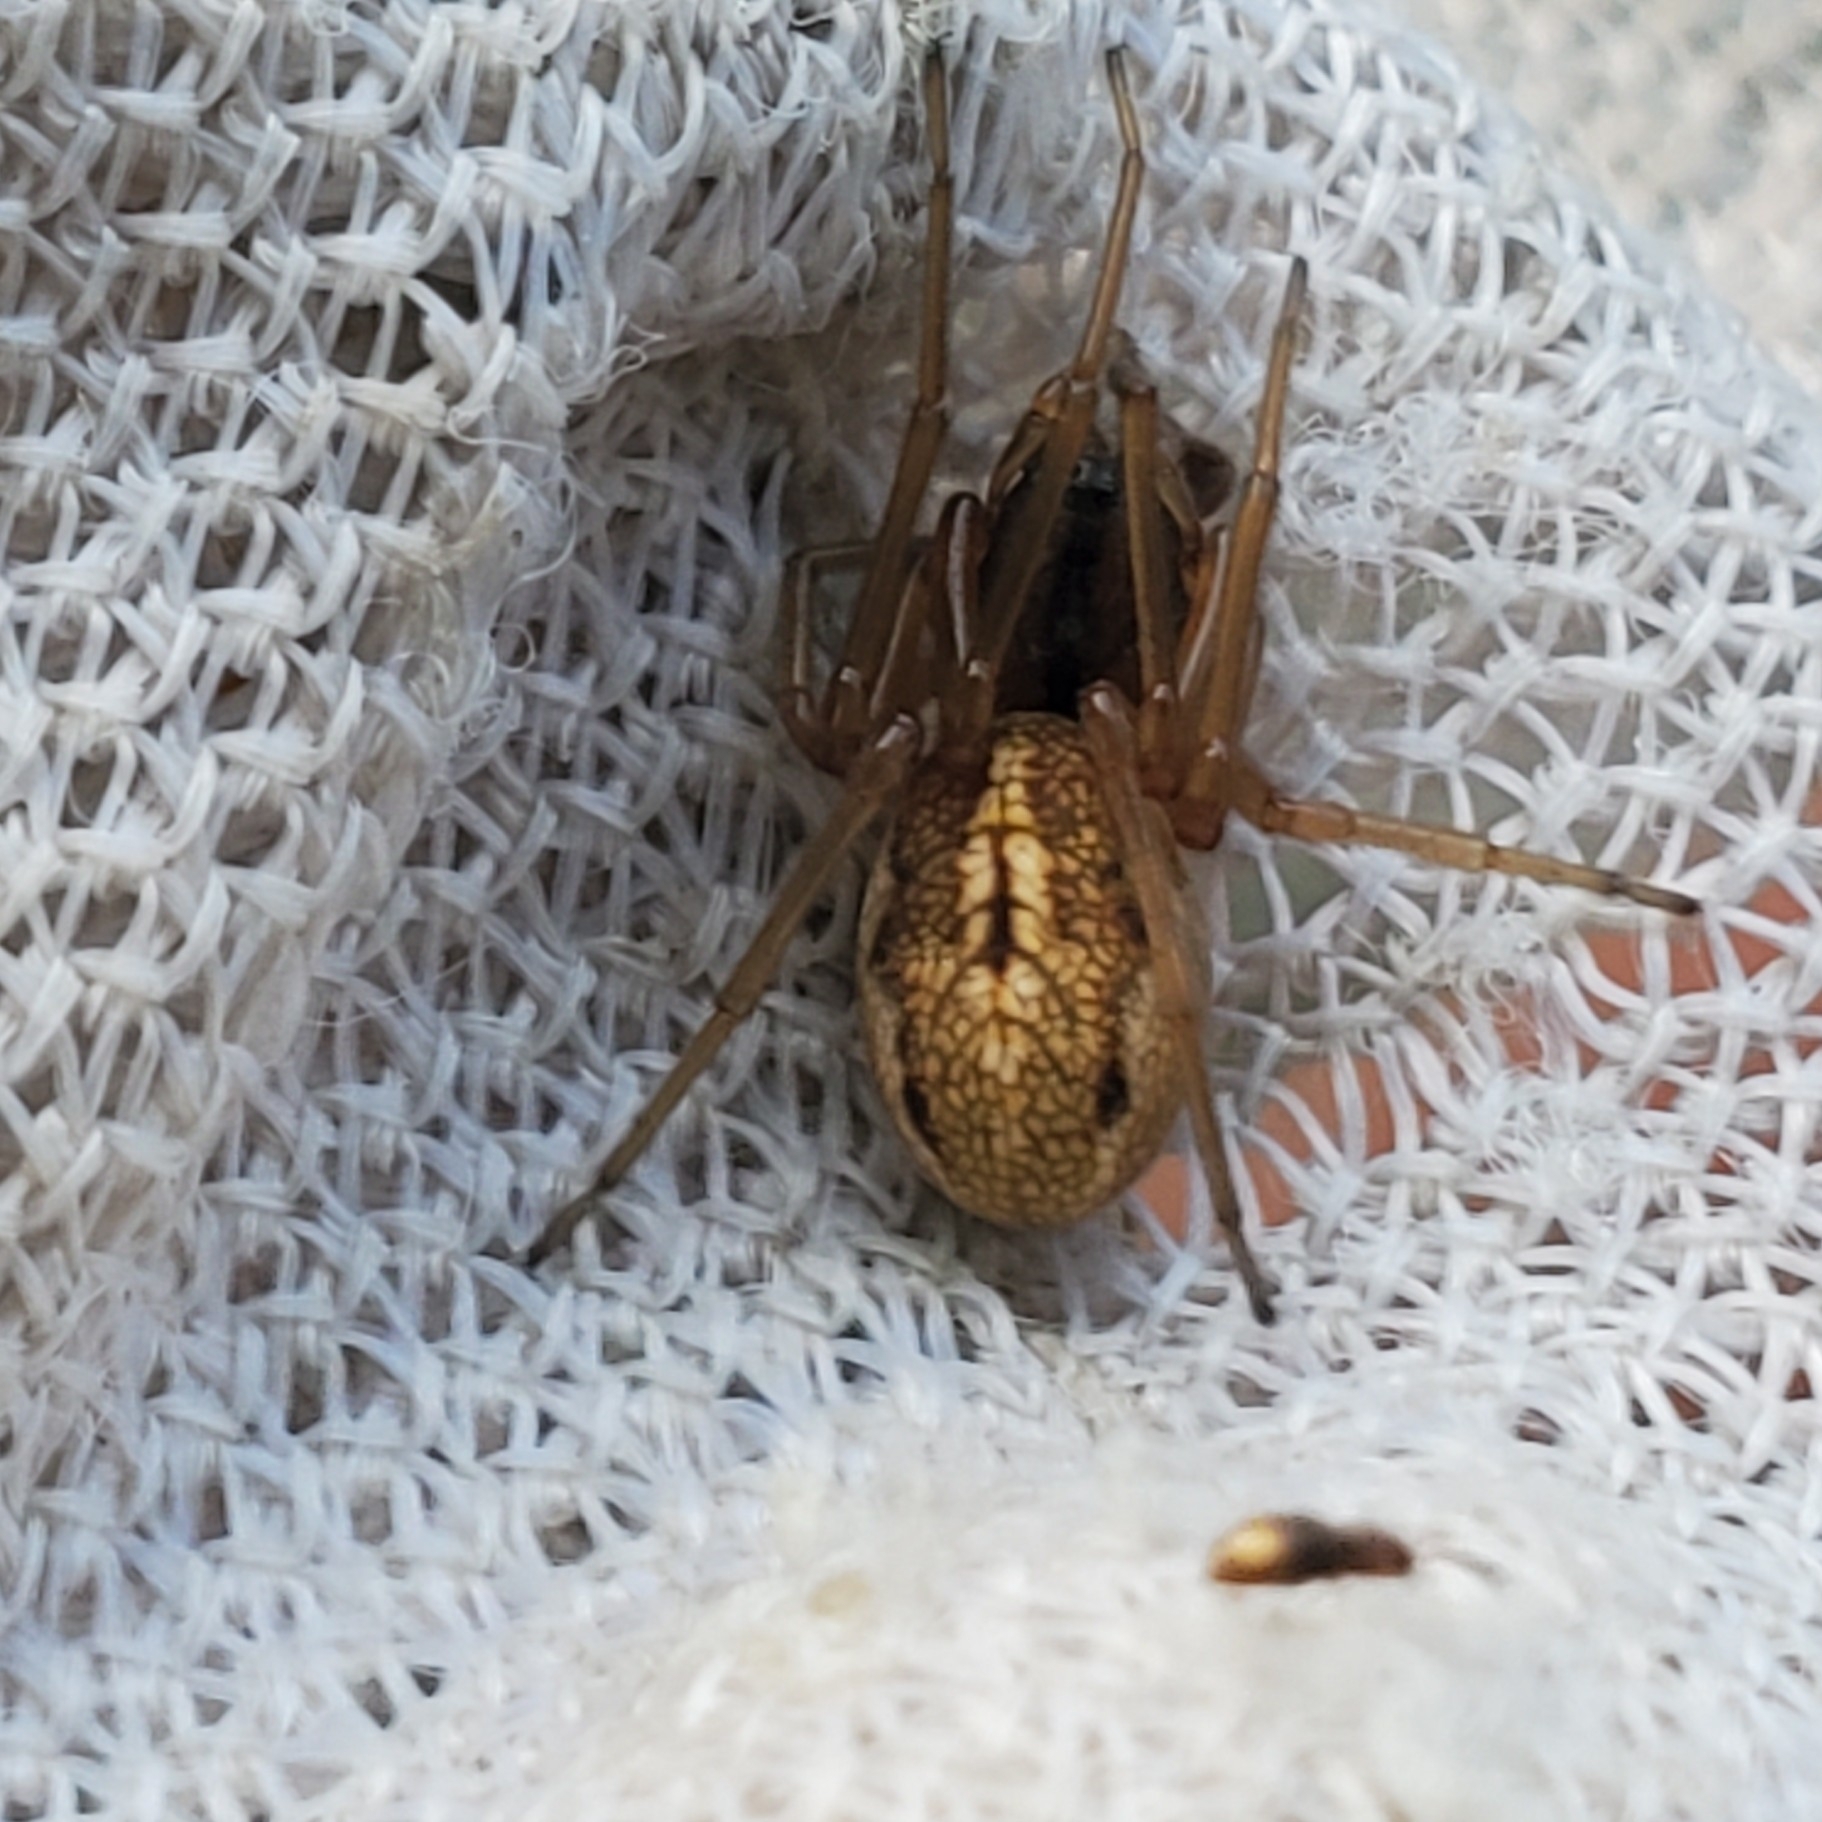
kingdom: Animalia
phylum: Arthropoda
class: Arachnida
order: Araneae
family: Tetragnathidae
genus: Pachygnatha
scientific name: Pachygnatha clercki
